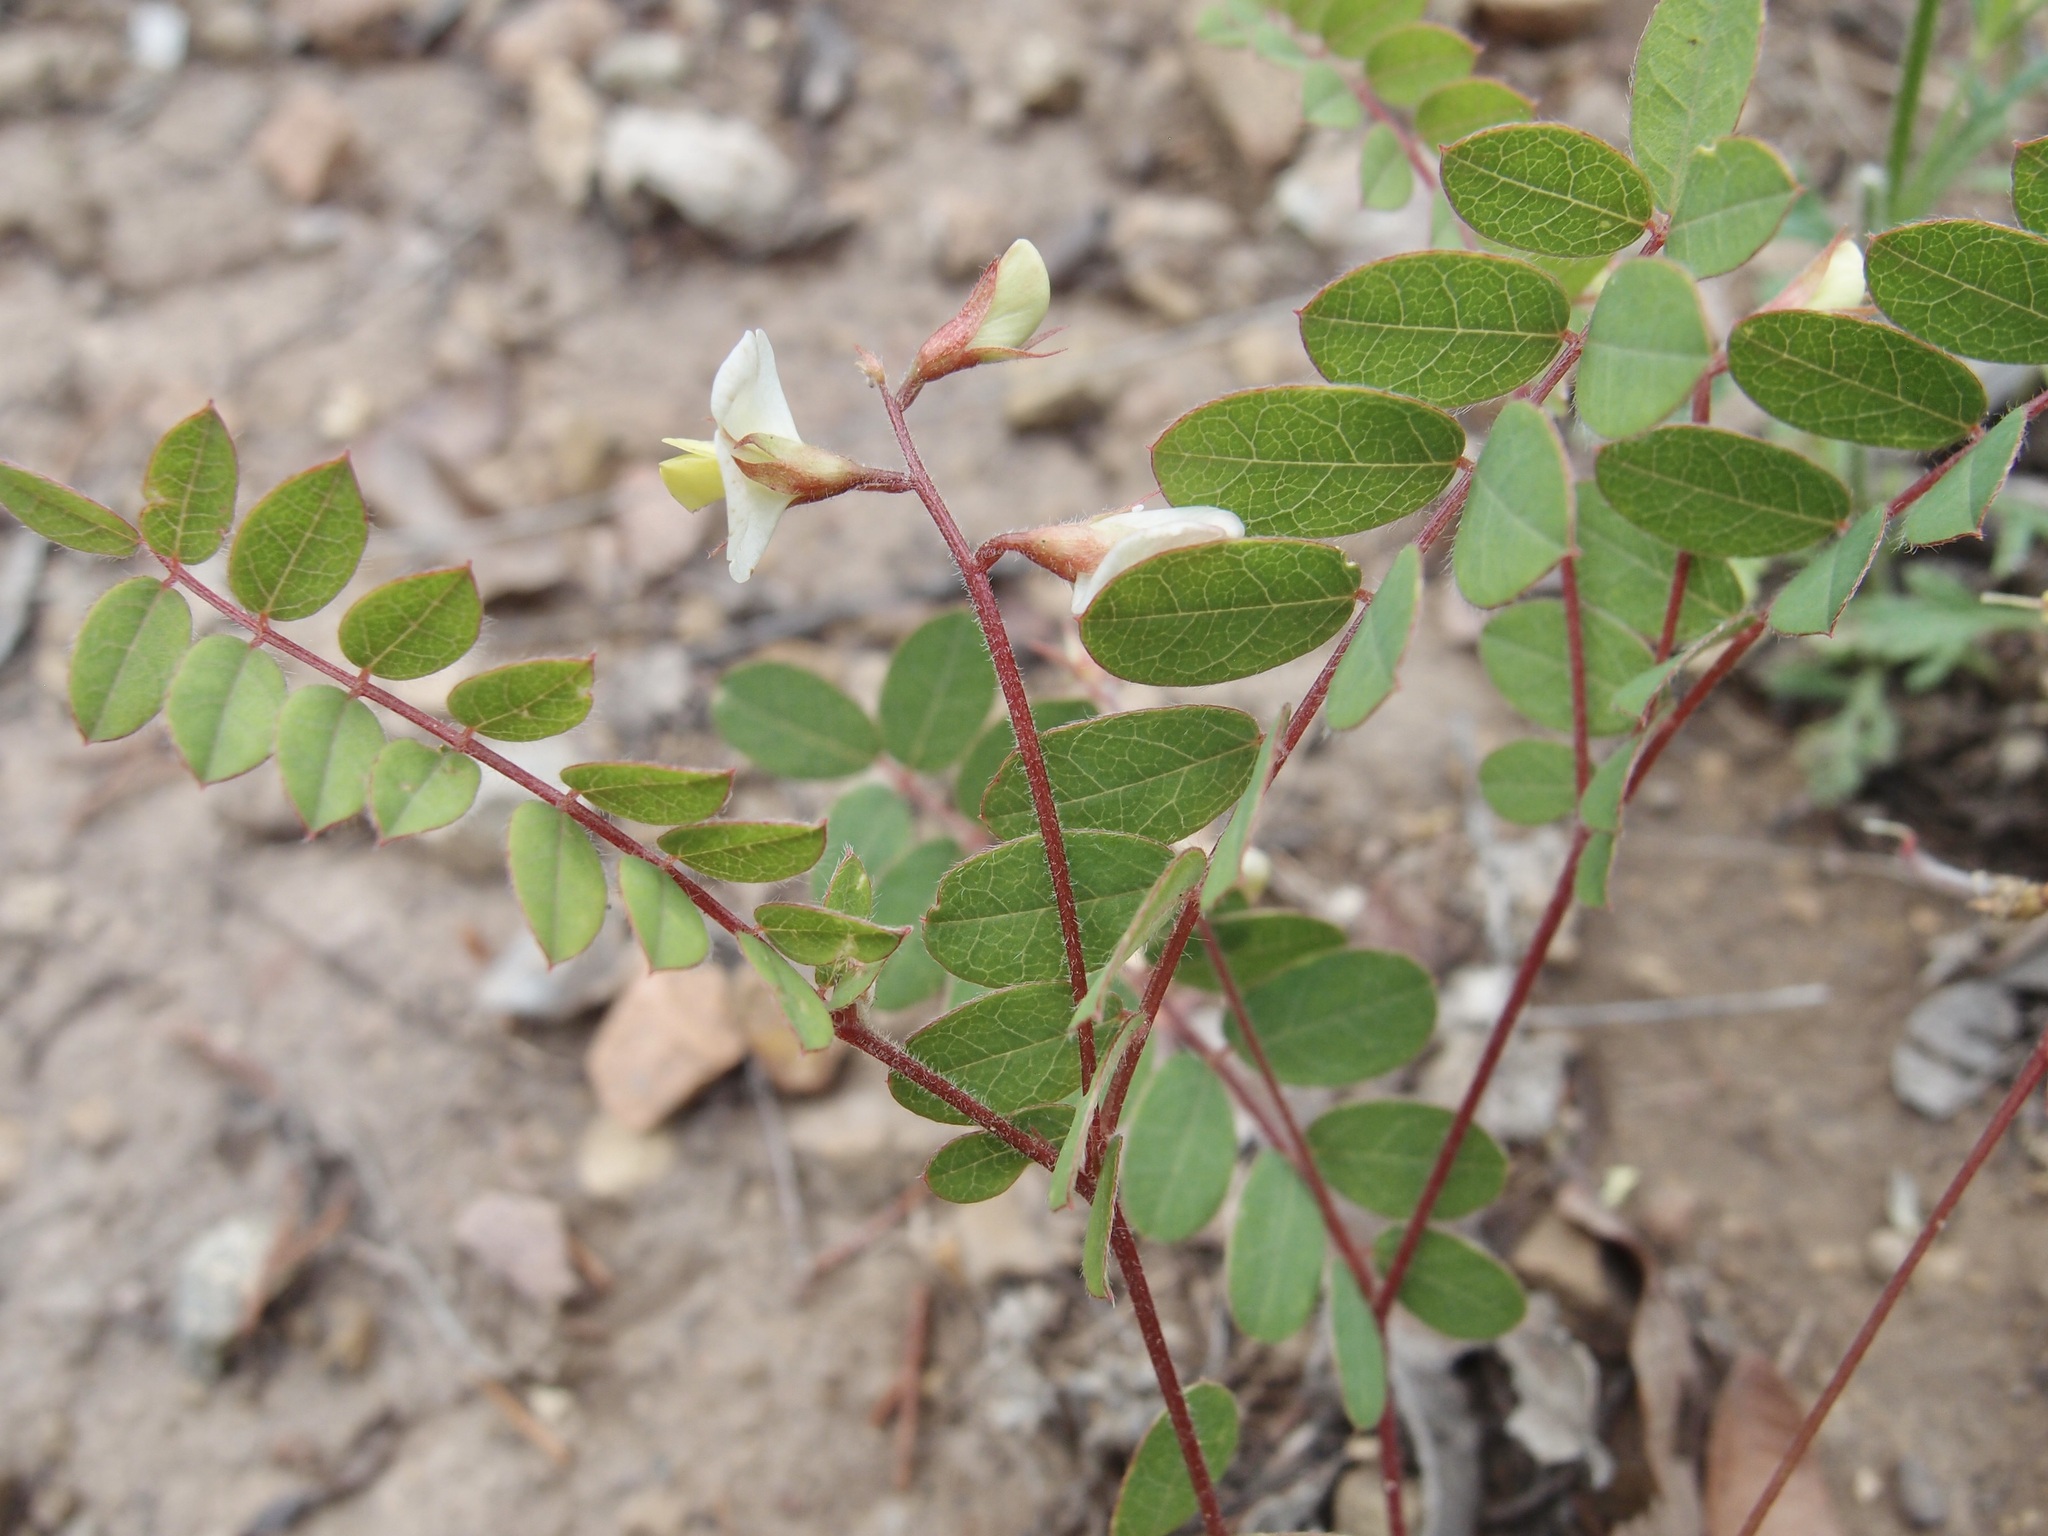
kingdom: Plantae
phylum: Tracheophyta
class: Magnoliopsida
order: Fabales
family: Fabaceae
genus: Coursetia
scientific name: Coursetia caribaea
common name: Anil falso
